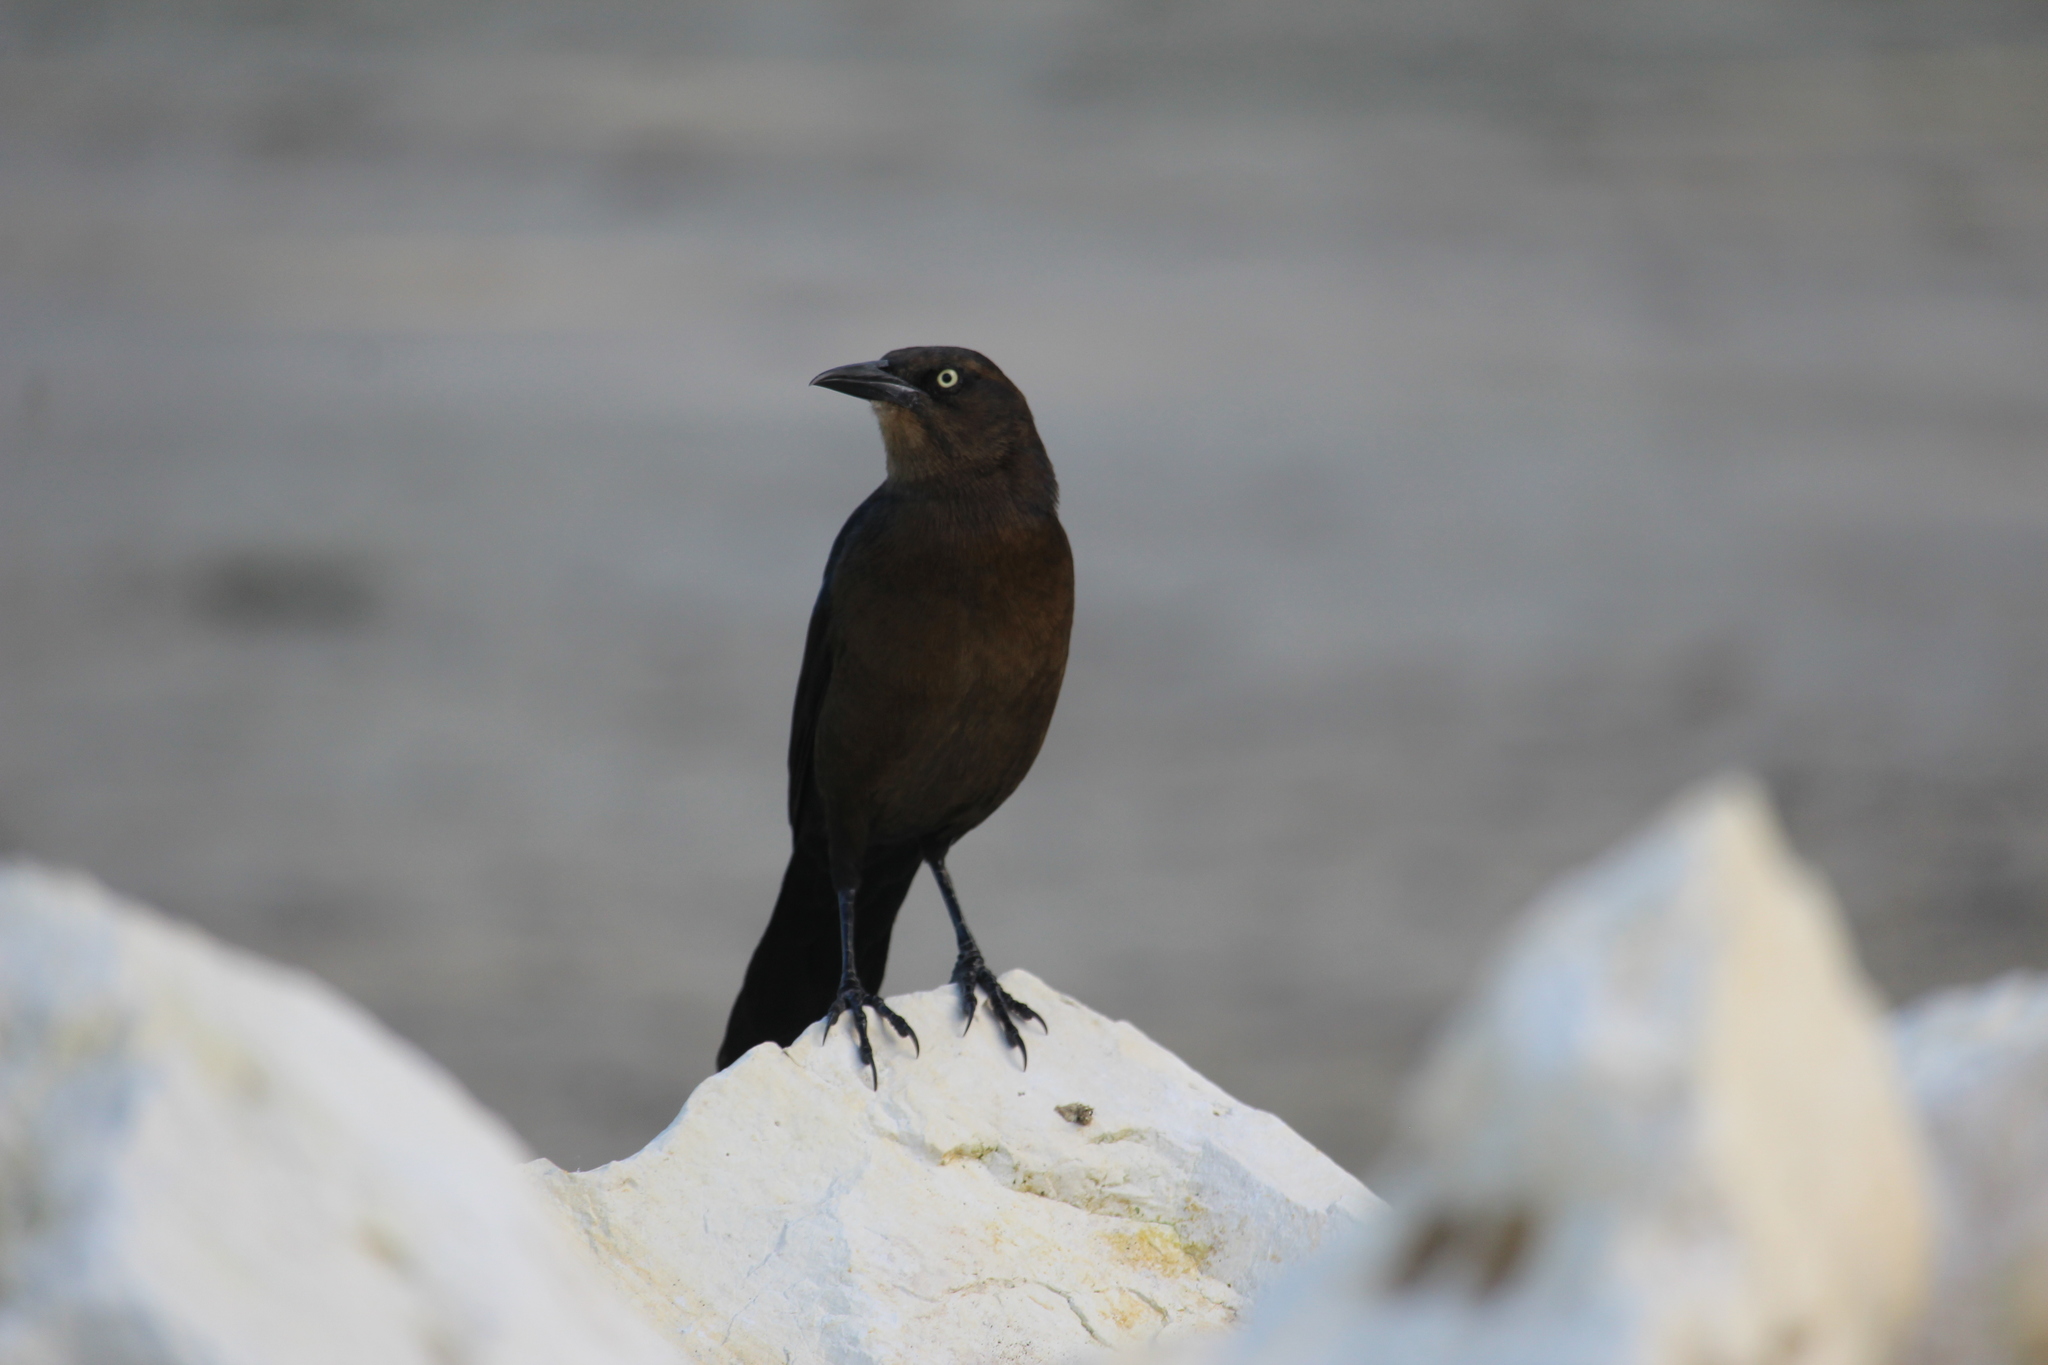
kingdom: Animalia
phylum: Chordata
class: Aves
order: Passeriformes
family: Icteridae
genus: Quiscalus
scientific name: Quiscalus mexicanus
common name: Great-tailed grackle
